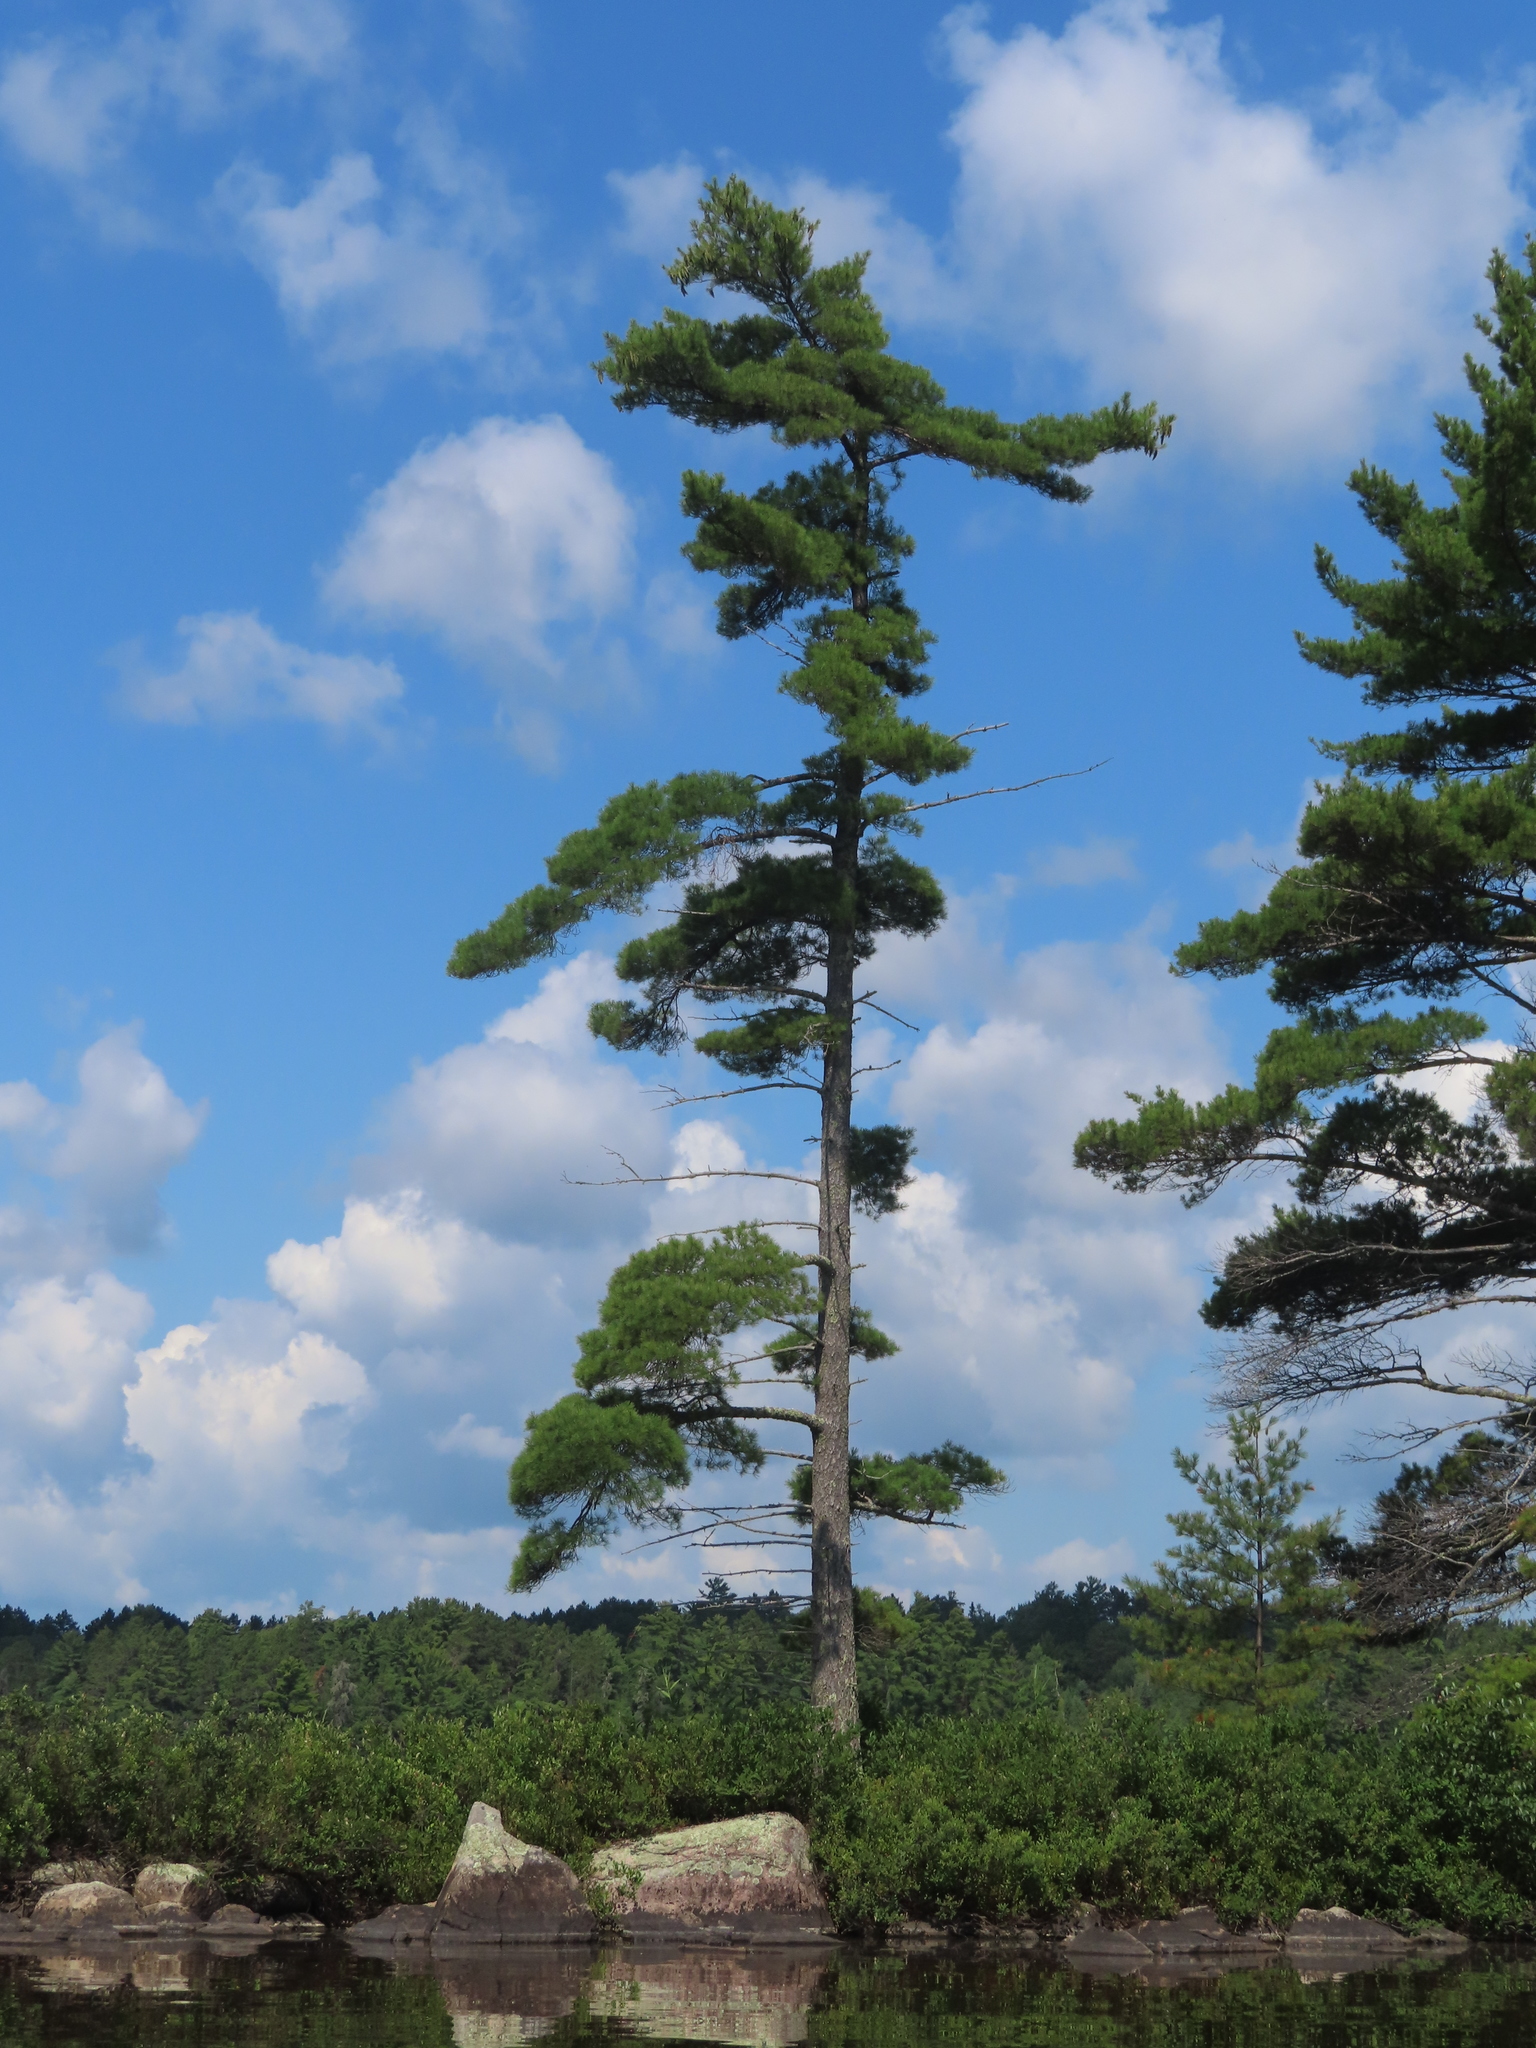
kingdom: Plantae
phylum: Tracheophyta
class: Pinopsida
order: Pinales
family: Pinaceae
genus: Pinus
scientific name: Pinus strobus
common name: Weymouth pine
